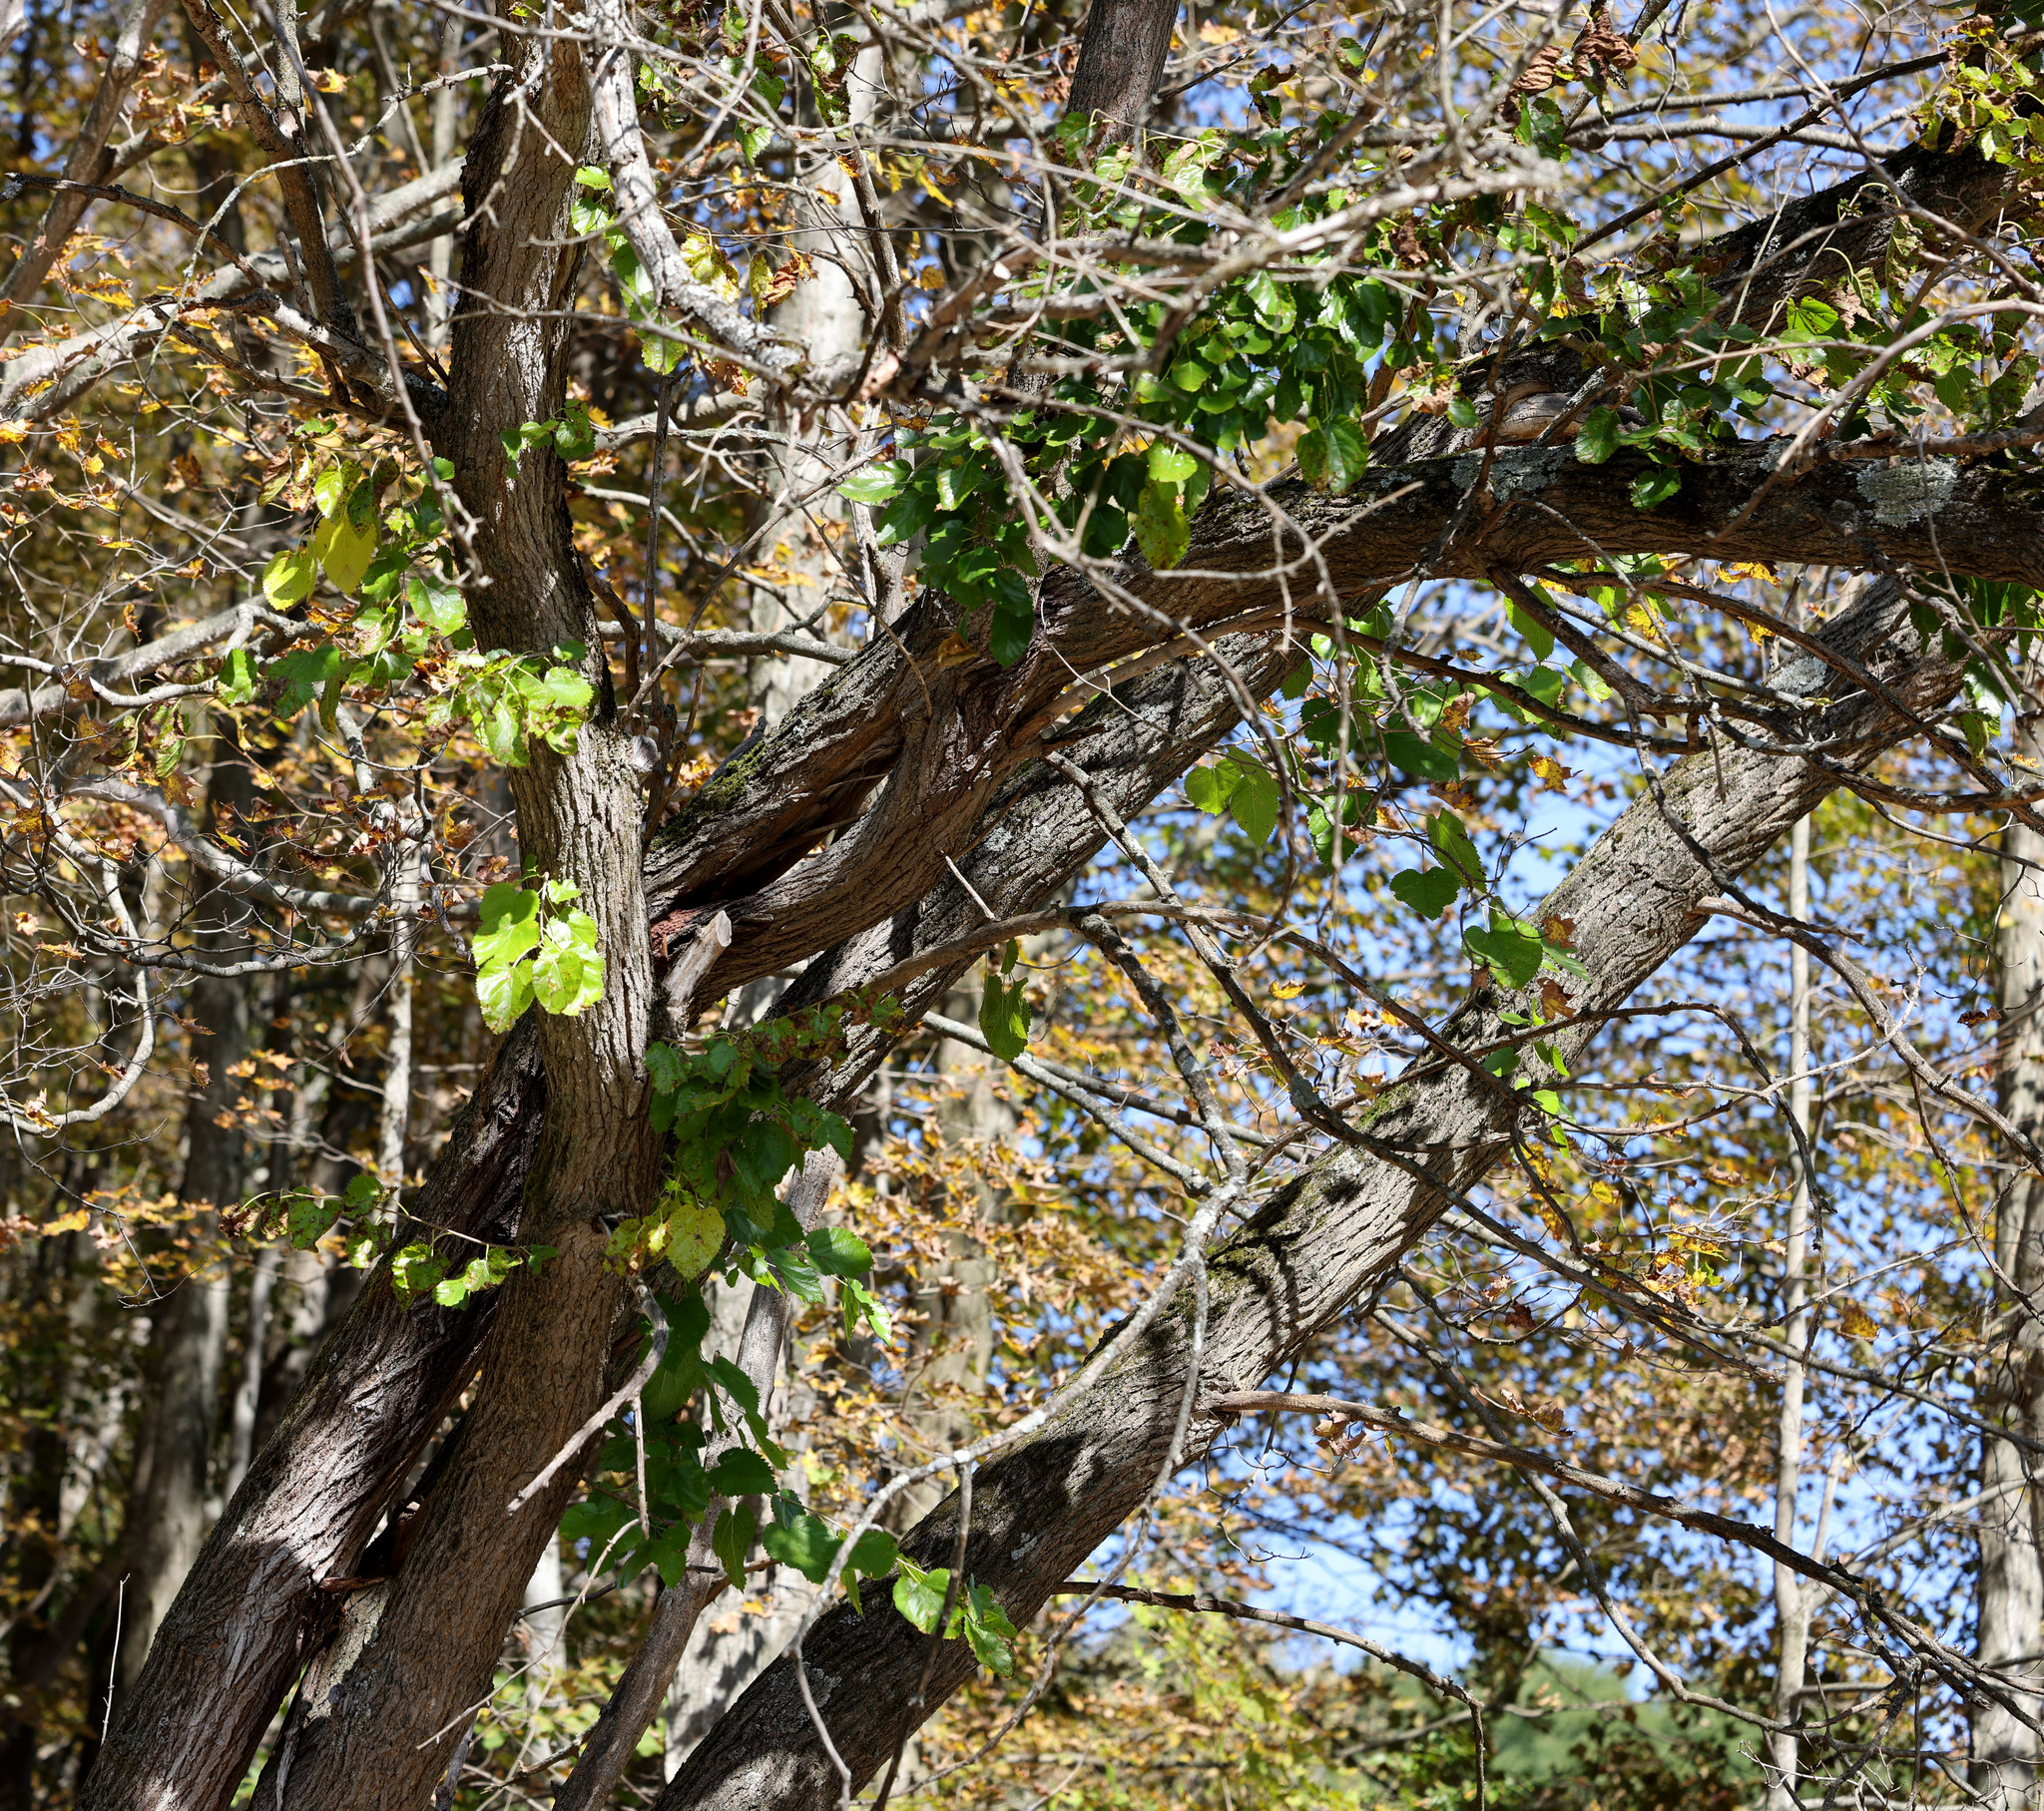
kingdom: Plantae
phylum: Tracheophyta
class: Magnoliopsida
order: Rosales
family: Moraceae
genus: Morus
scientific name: Morus alba
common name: White mulberry
